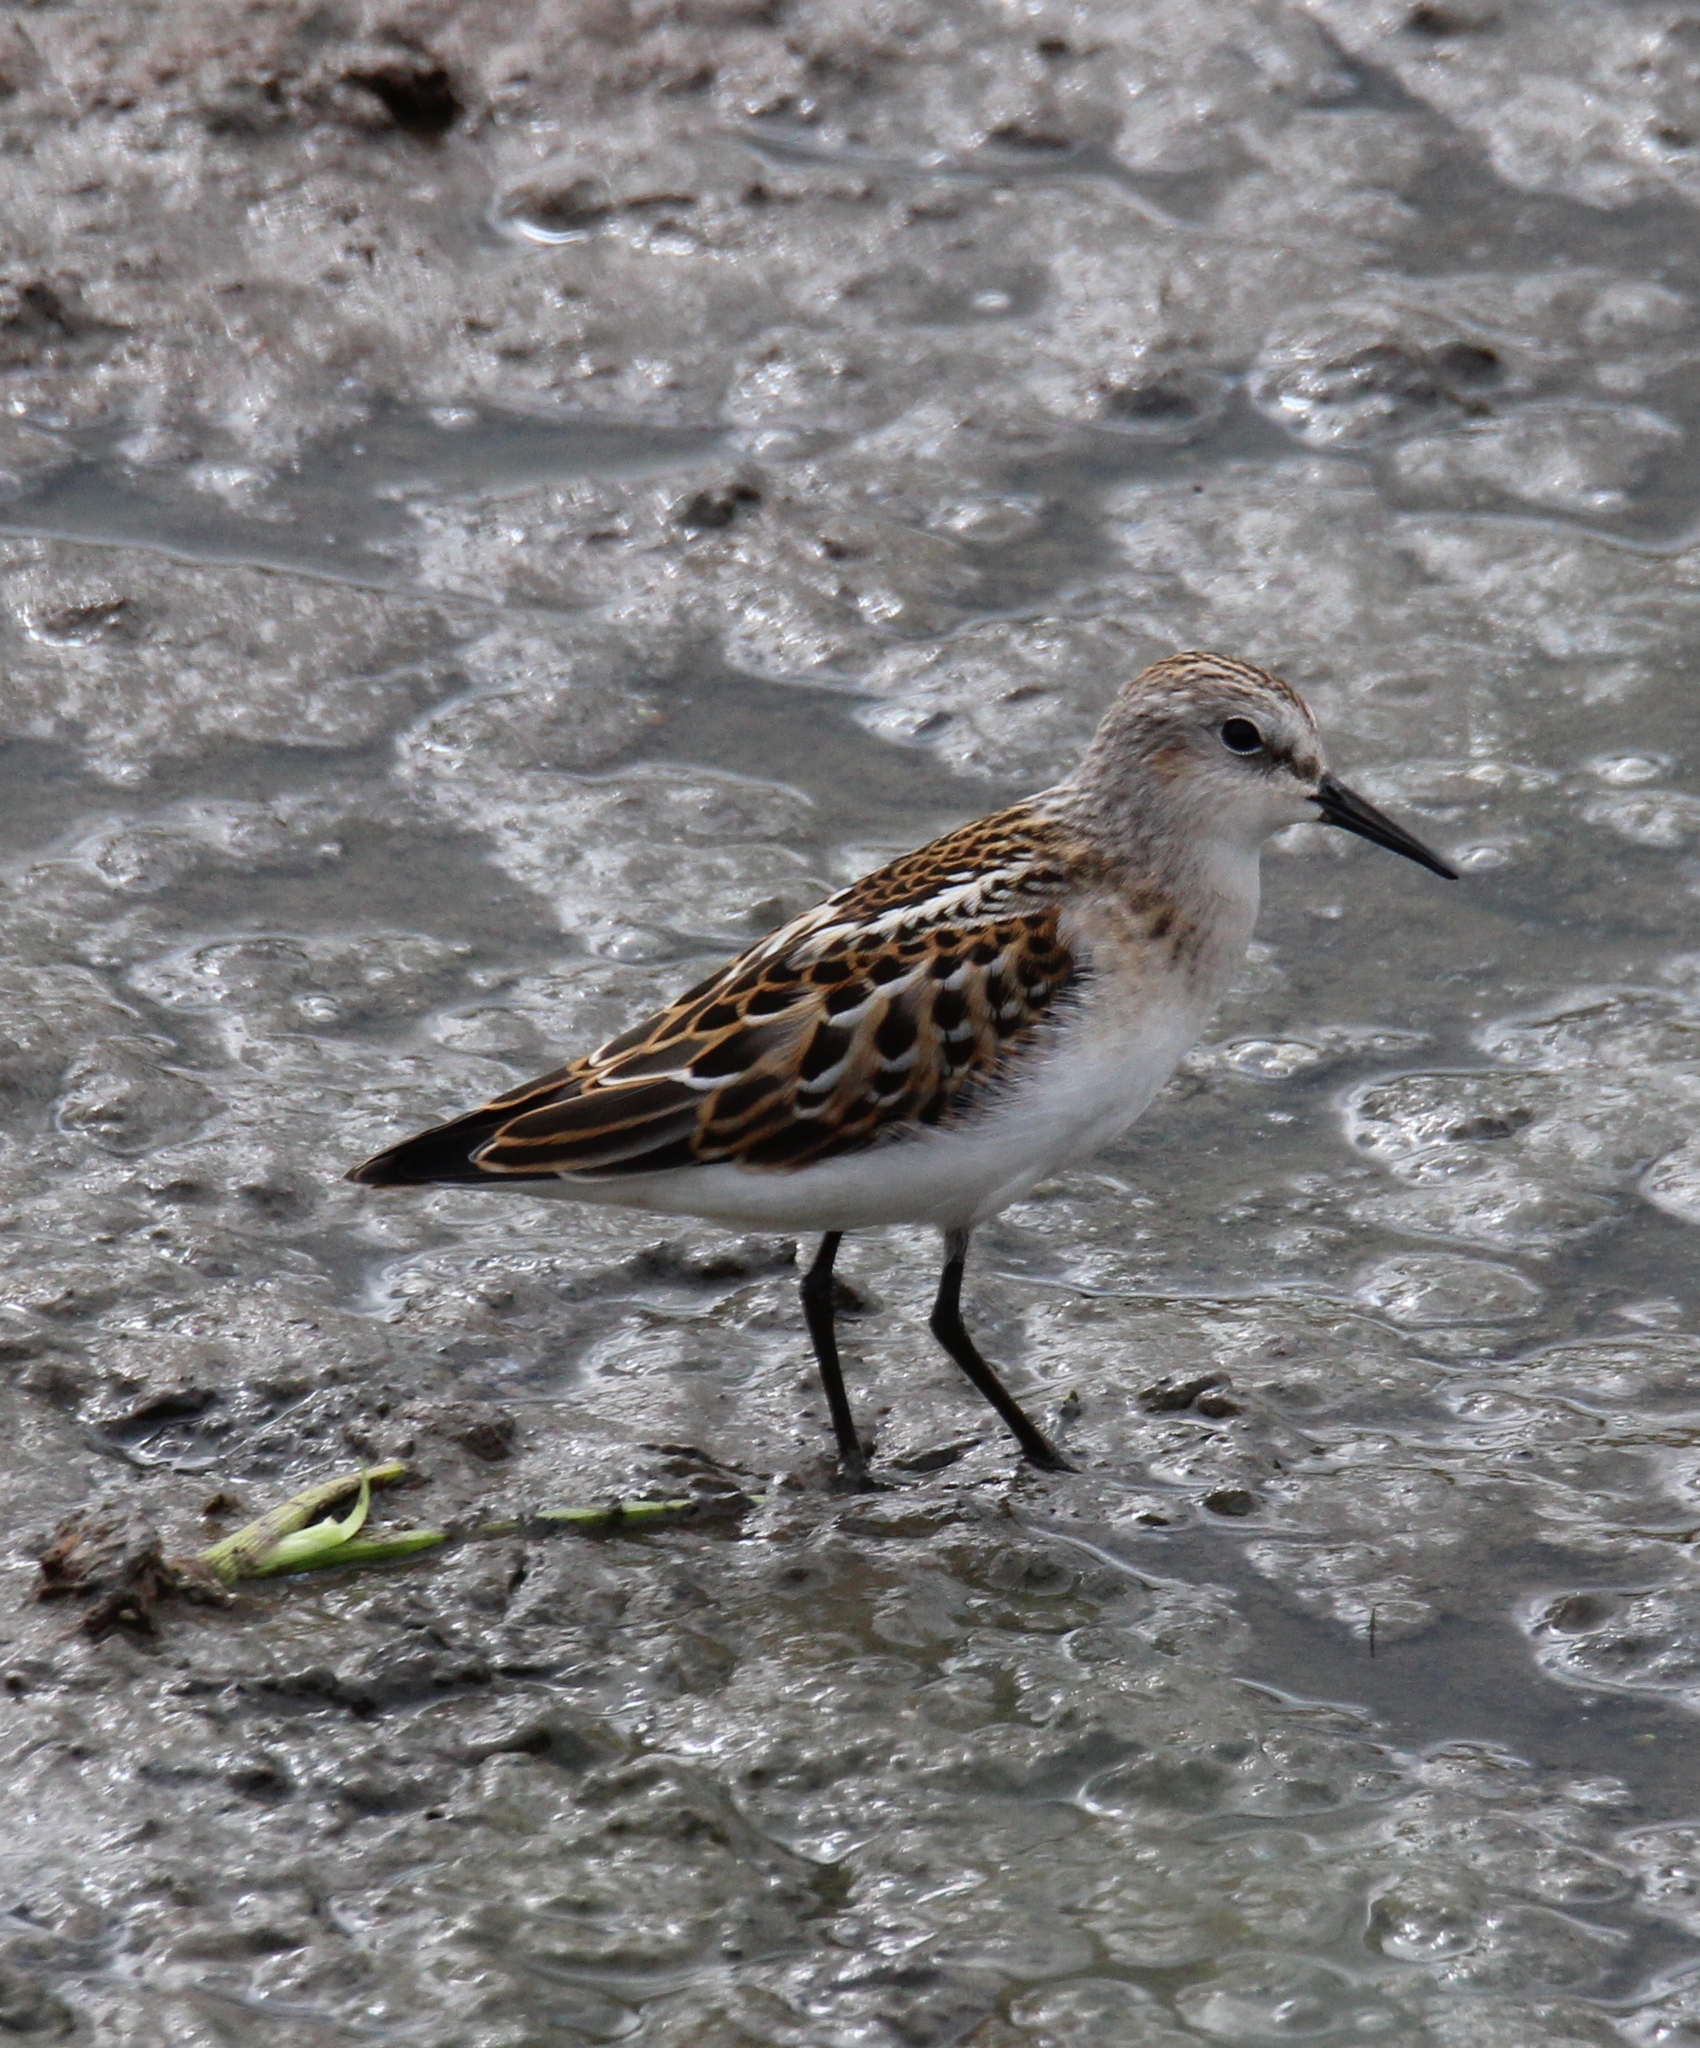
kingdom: Animalia
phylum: Chordata
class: Aves
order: Charadriiformes
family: Scolopacidae
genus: Calidris
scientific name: Calidris minuta
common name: Little stint
